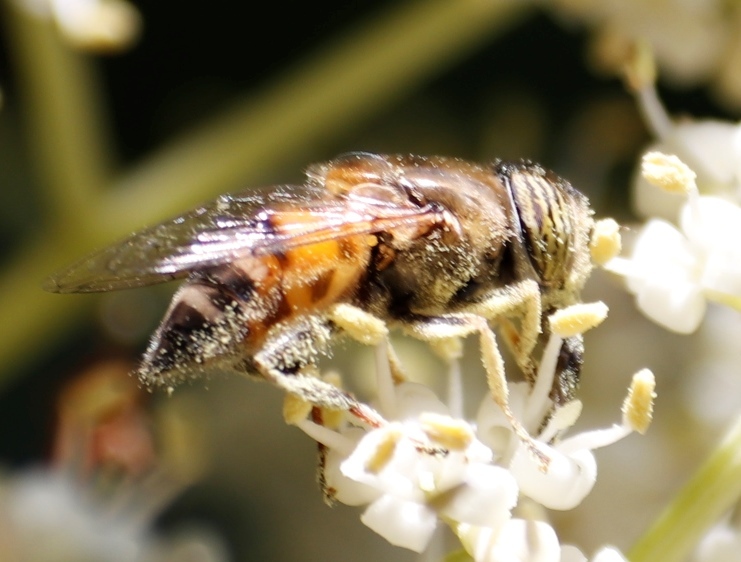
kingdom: Animalia
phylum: Arthropoda
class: Insecta
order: Diptera
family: Syrphidae
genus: Eristalinus
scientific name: Eristalinus taeniops
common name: Syrphid fly
